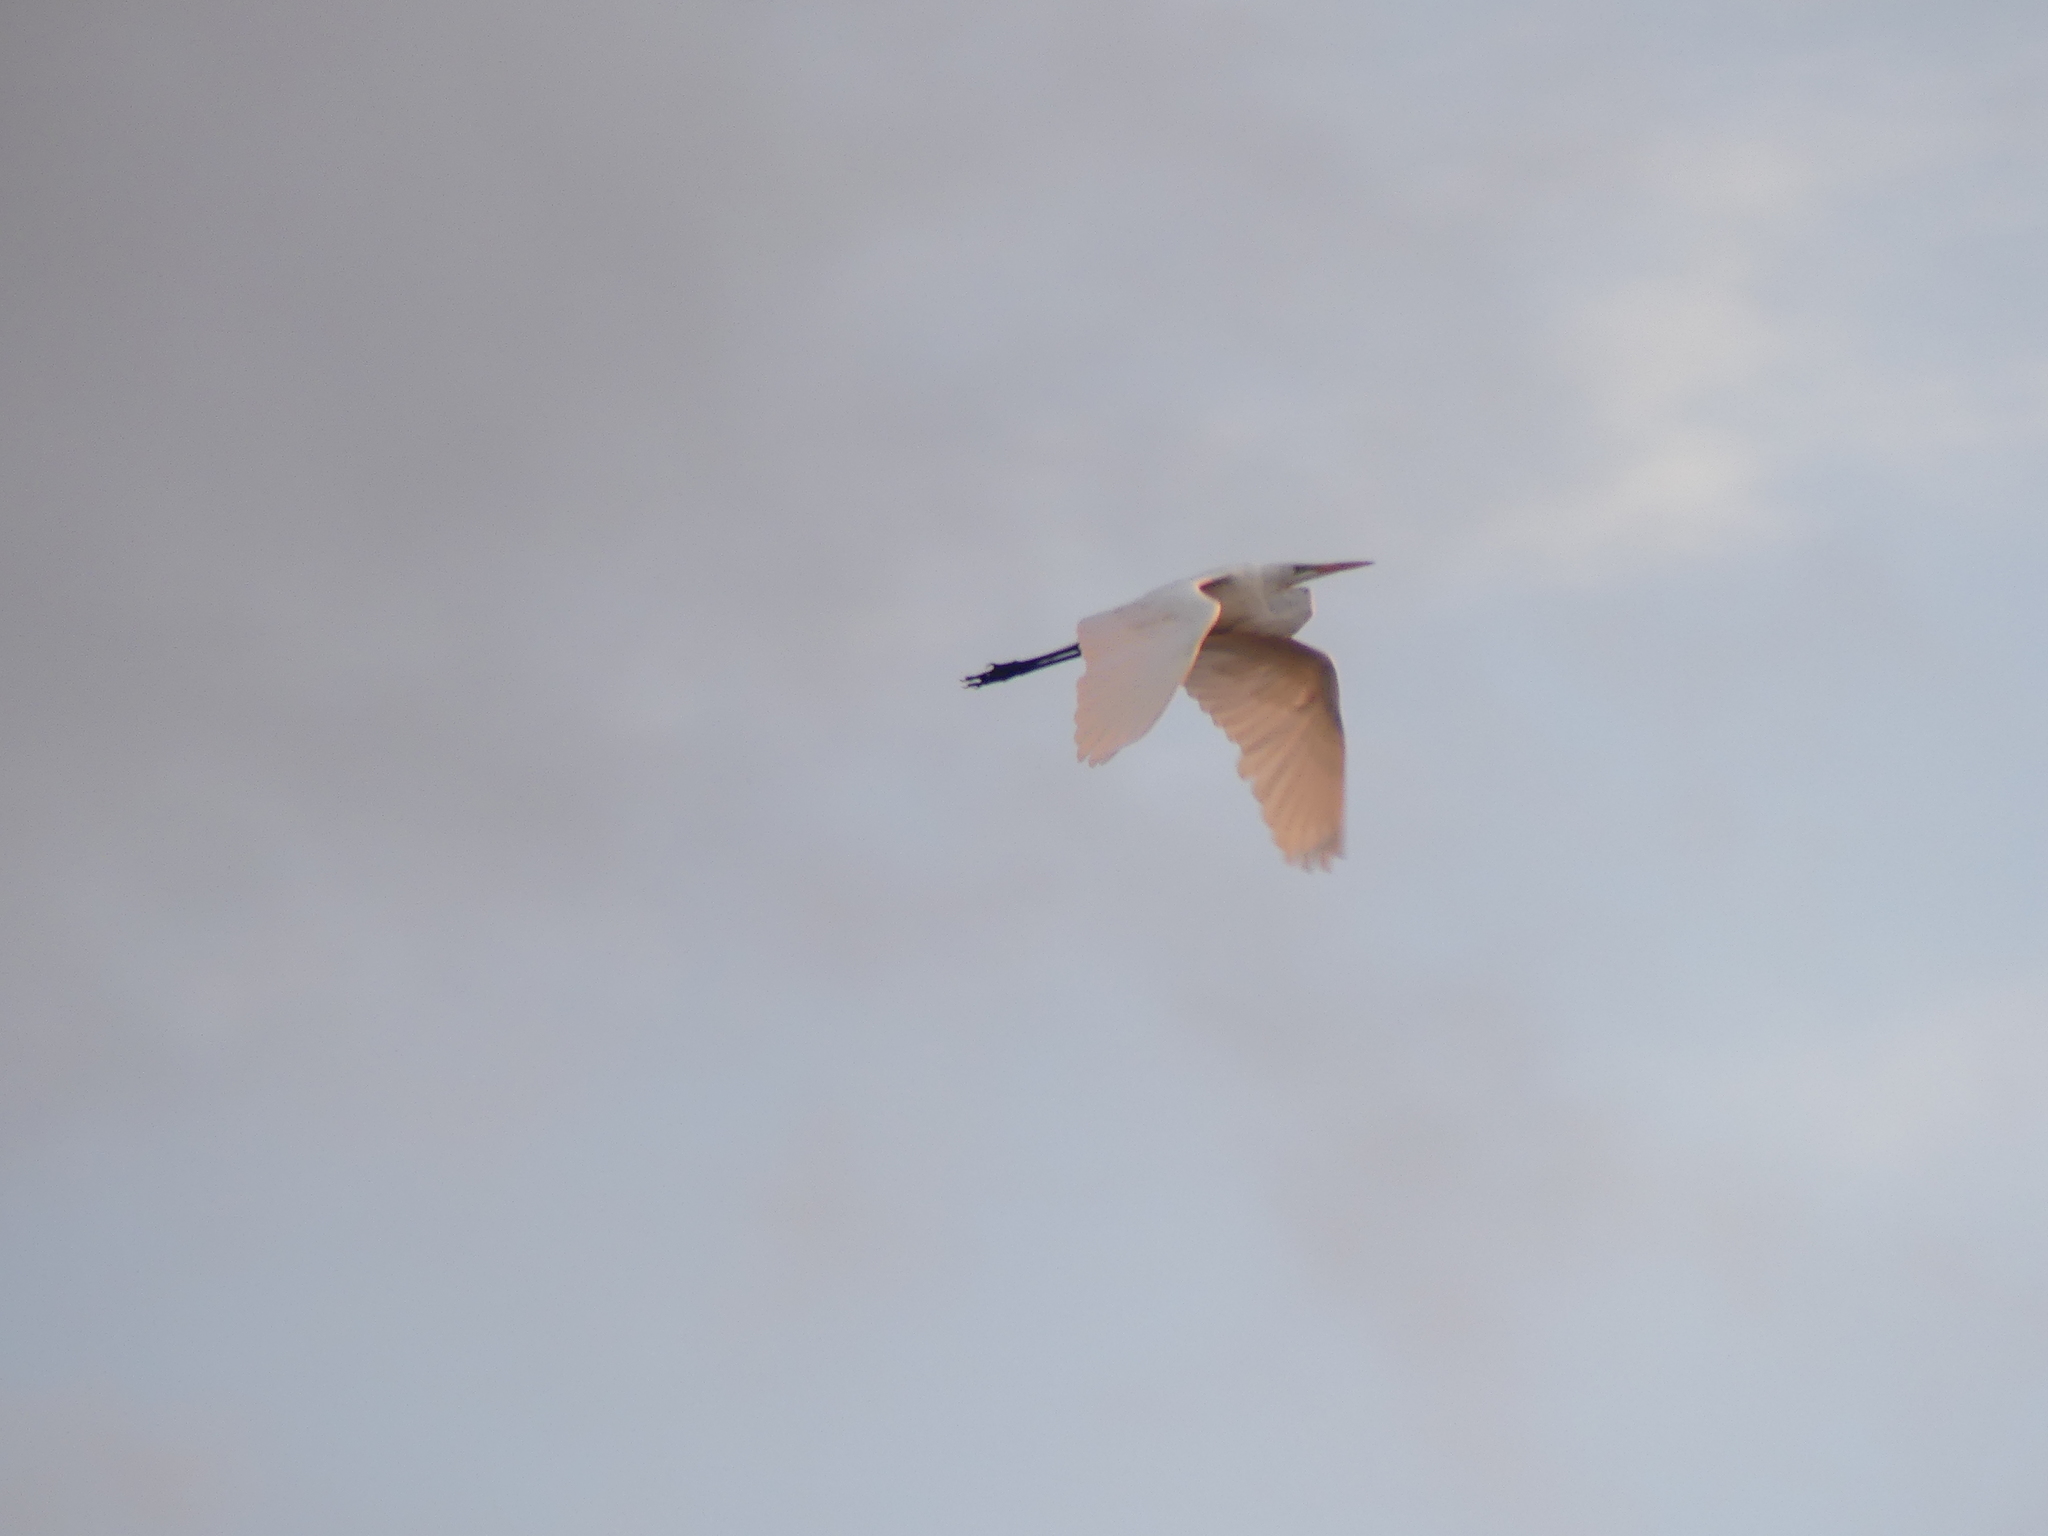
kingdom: Animalia
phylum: Chordata
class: Aves
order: Pelecaniformes
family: Ardeidae
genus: Ardea
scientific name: Ardea alba
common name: Great egret
